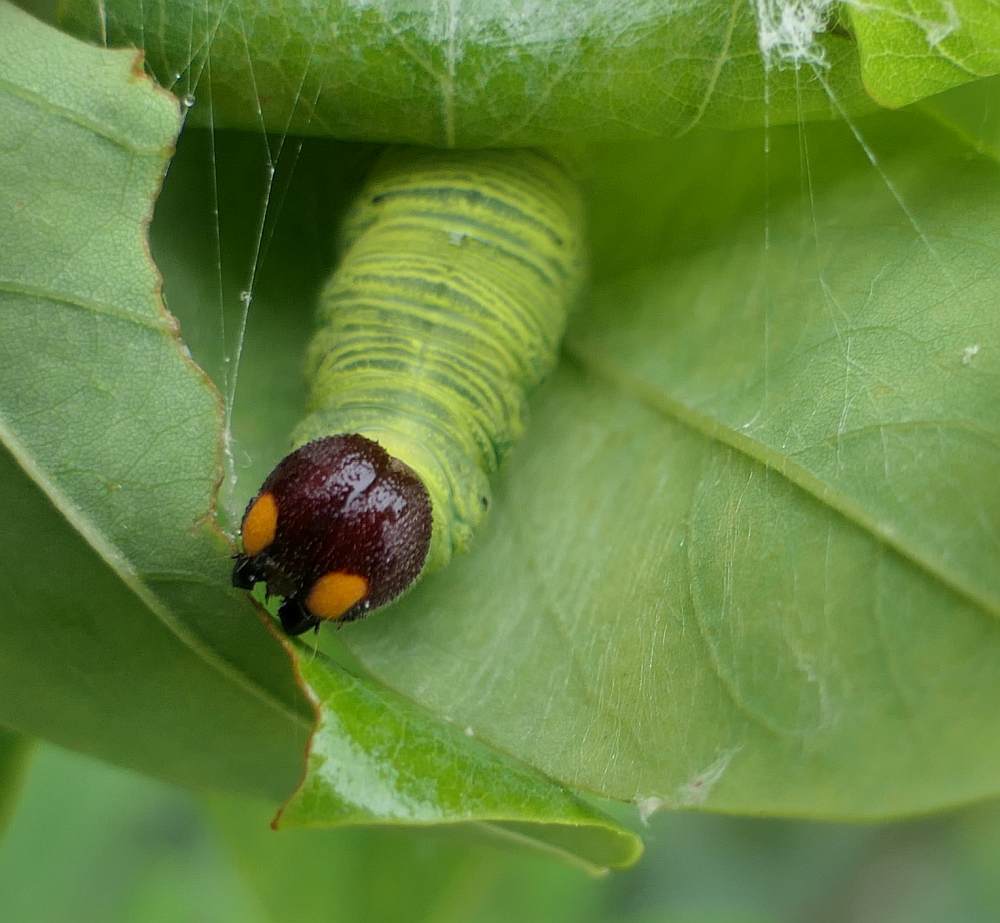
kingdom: Animalia
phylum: Arthropoda
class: Insecta
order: Lepidoptera
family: Hesperiidae
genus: Epargyreus
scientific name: Epargyreus clarus
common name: Silver-spotted skipper
